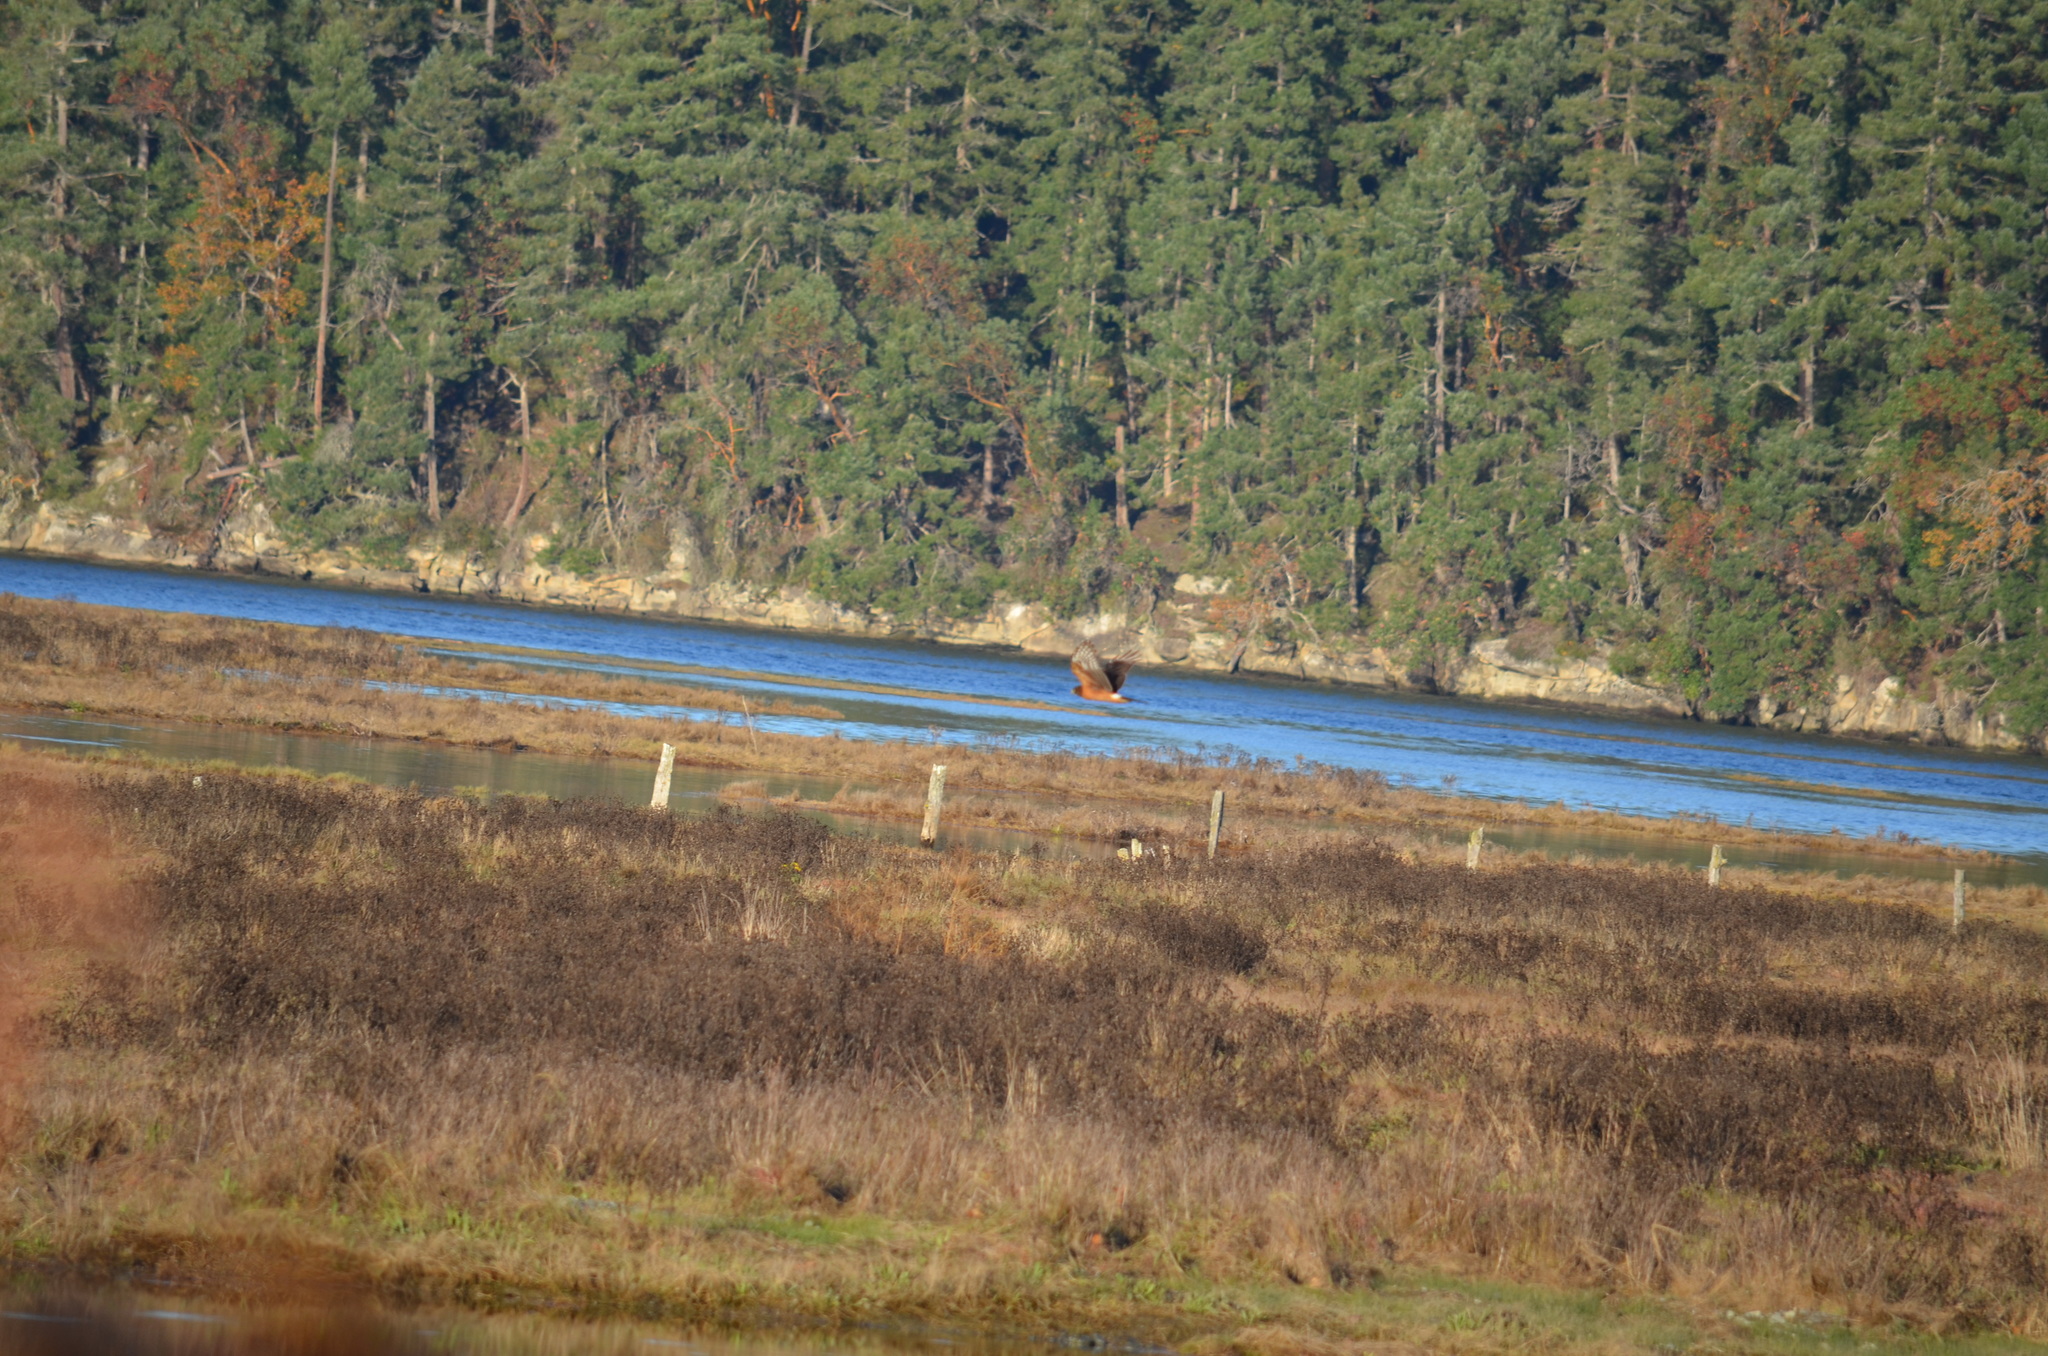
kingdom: Animalia
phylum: Chordata
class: Aves
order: Accipitriformes
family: Accipitridae
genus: Circus
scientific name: Circus cyaneus
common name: Hen harrier
